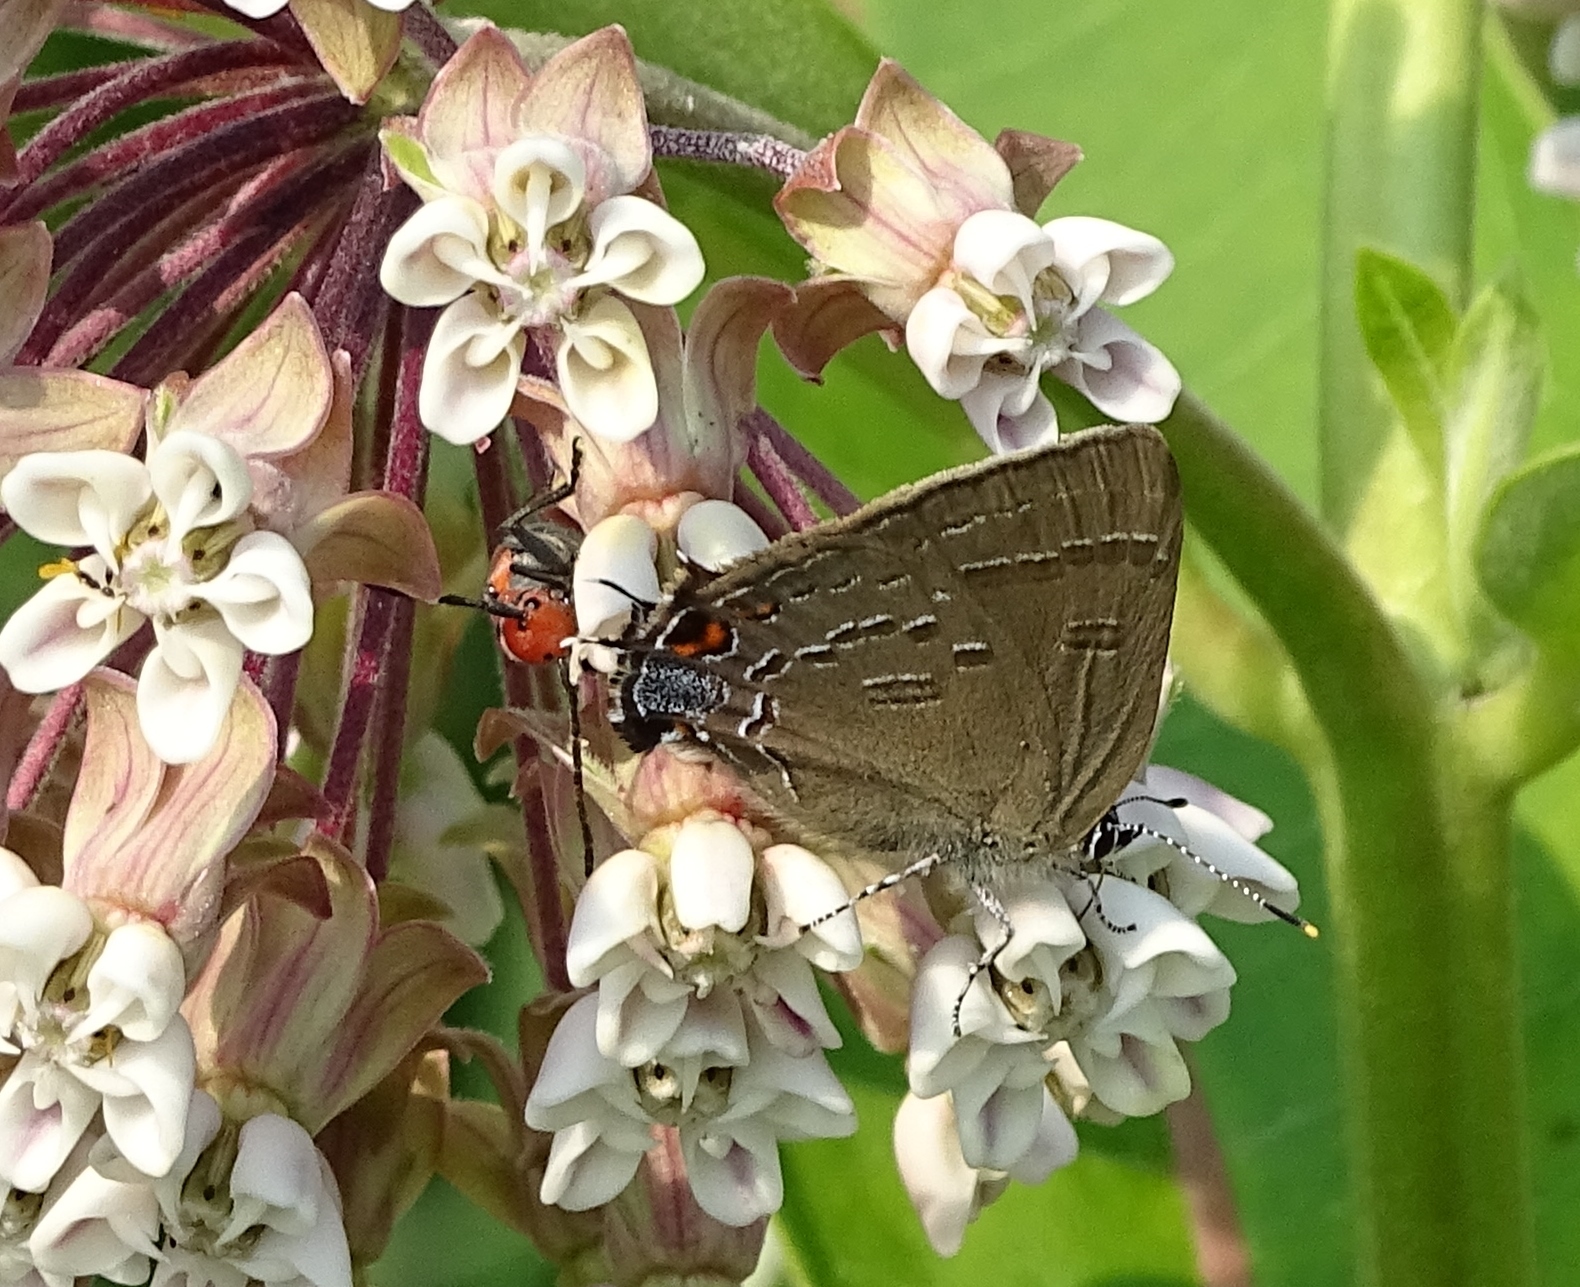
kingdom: Animalia
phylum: Arthropoda
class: Insecta
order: Lepidoptera
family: Lycaenidae
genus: Satyrium
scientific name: Satyrium calanus
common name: Banded hairstreak
